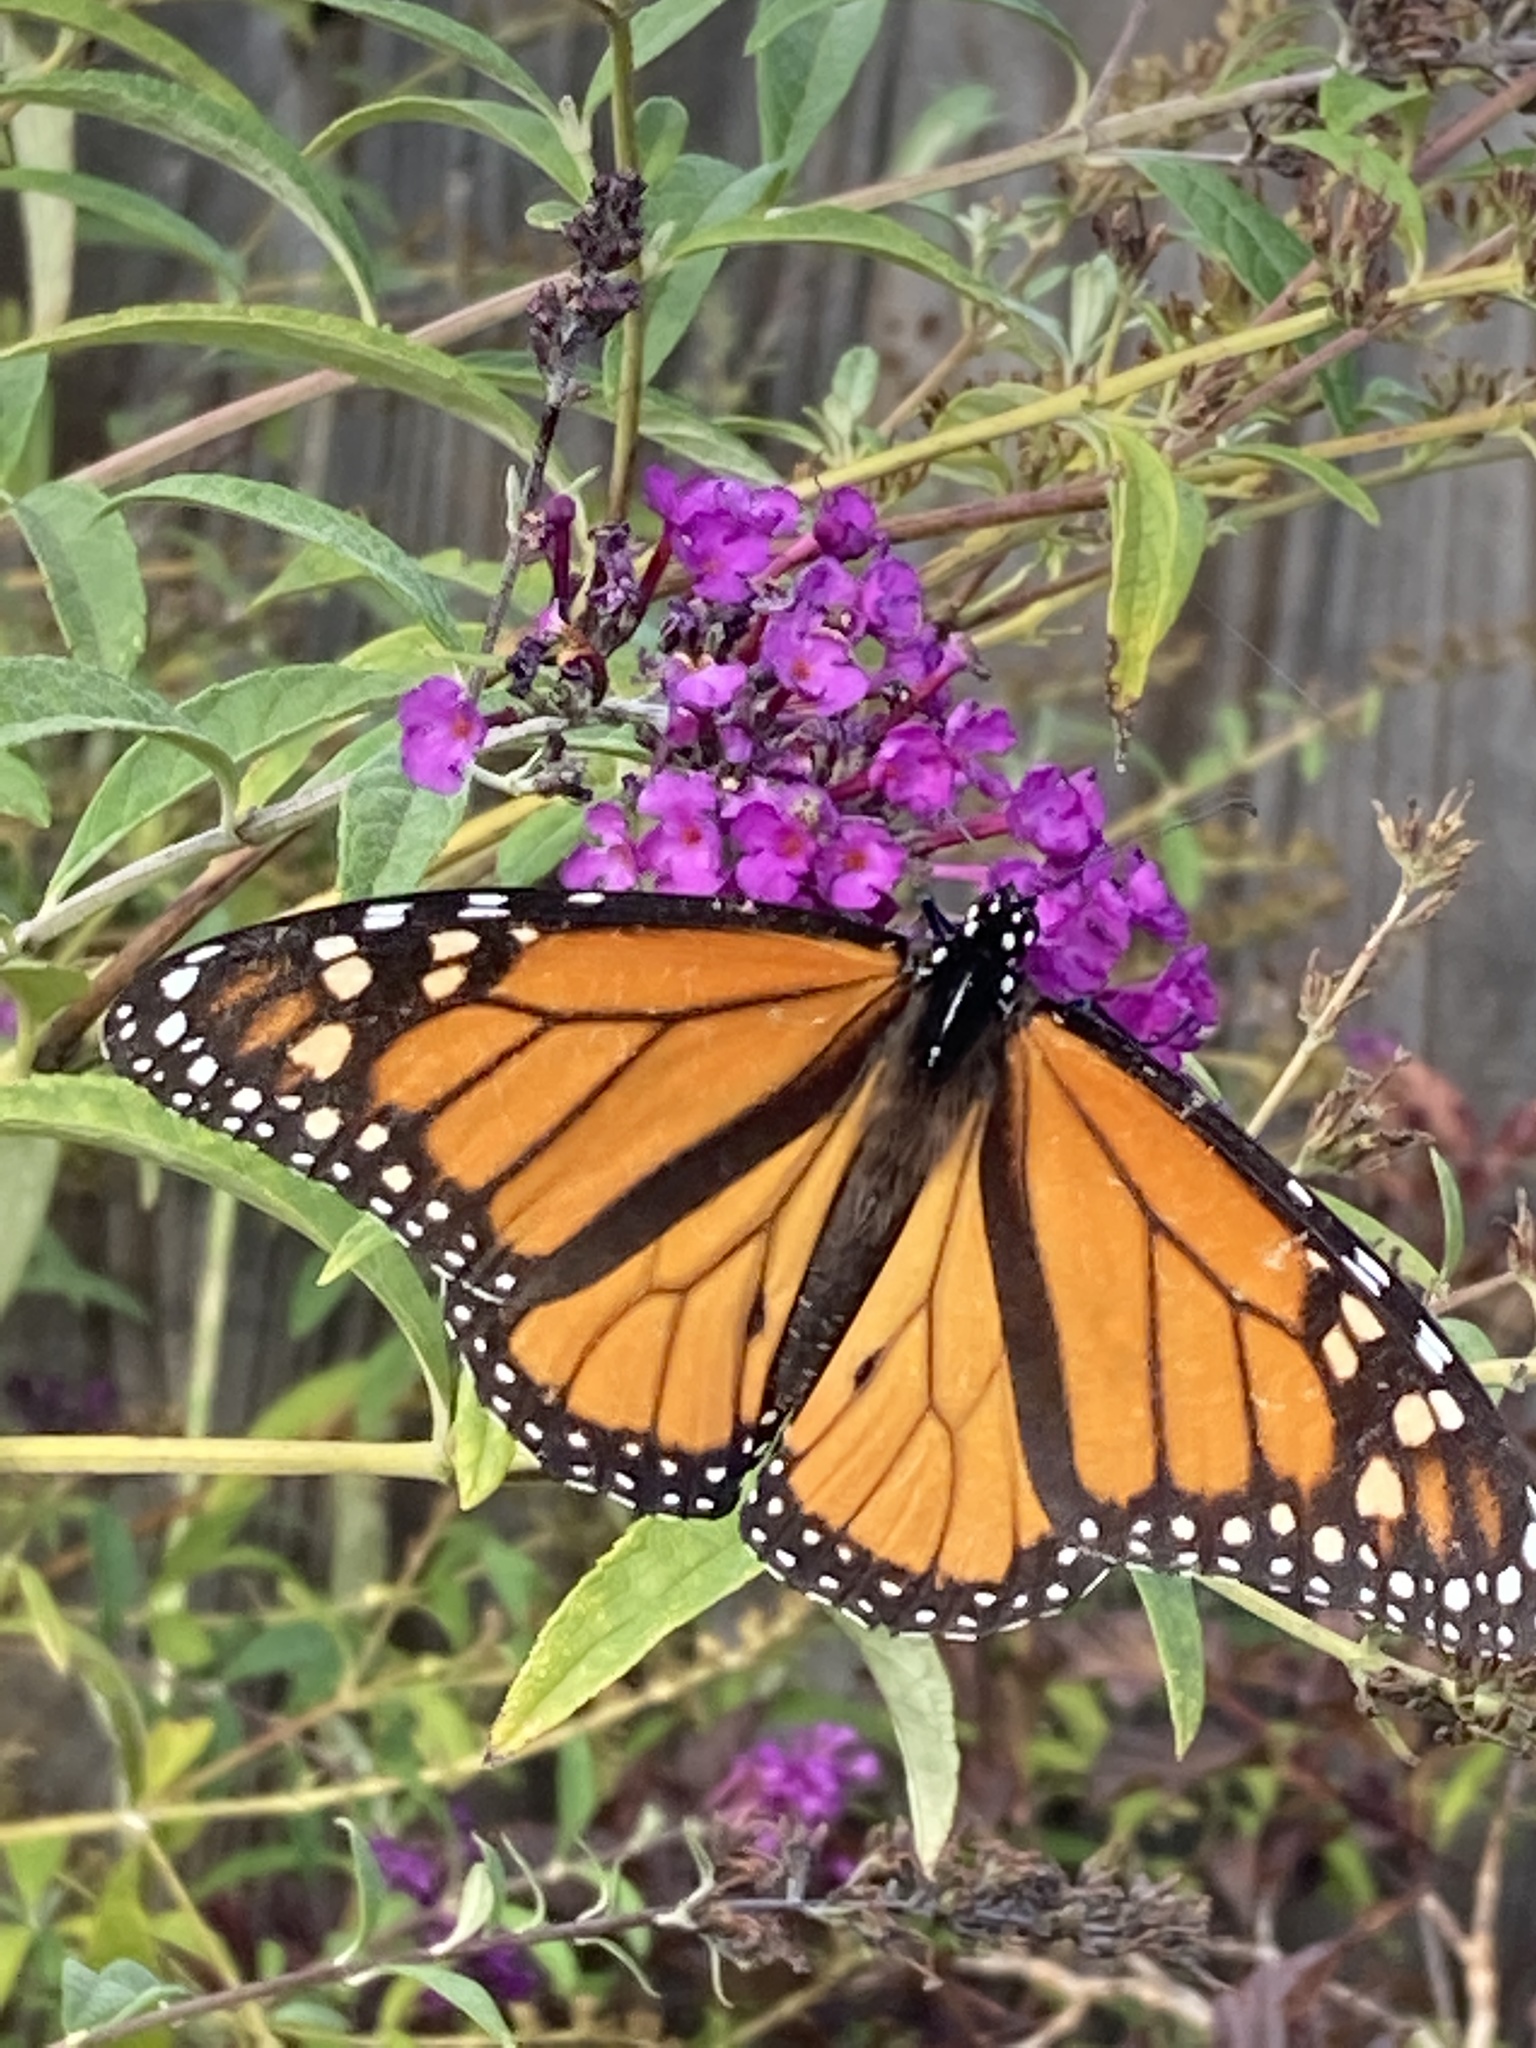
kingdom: Animalia
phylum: Arthropoda
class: Insecta
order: Lepidoptera
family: Nymphalidae
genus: Danaus
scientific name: Danaus plexippus
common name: Monarch
